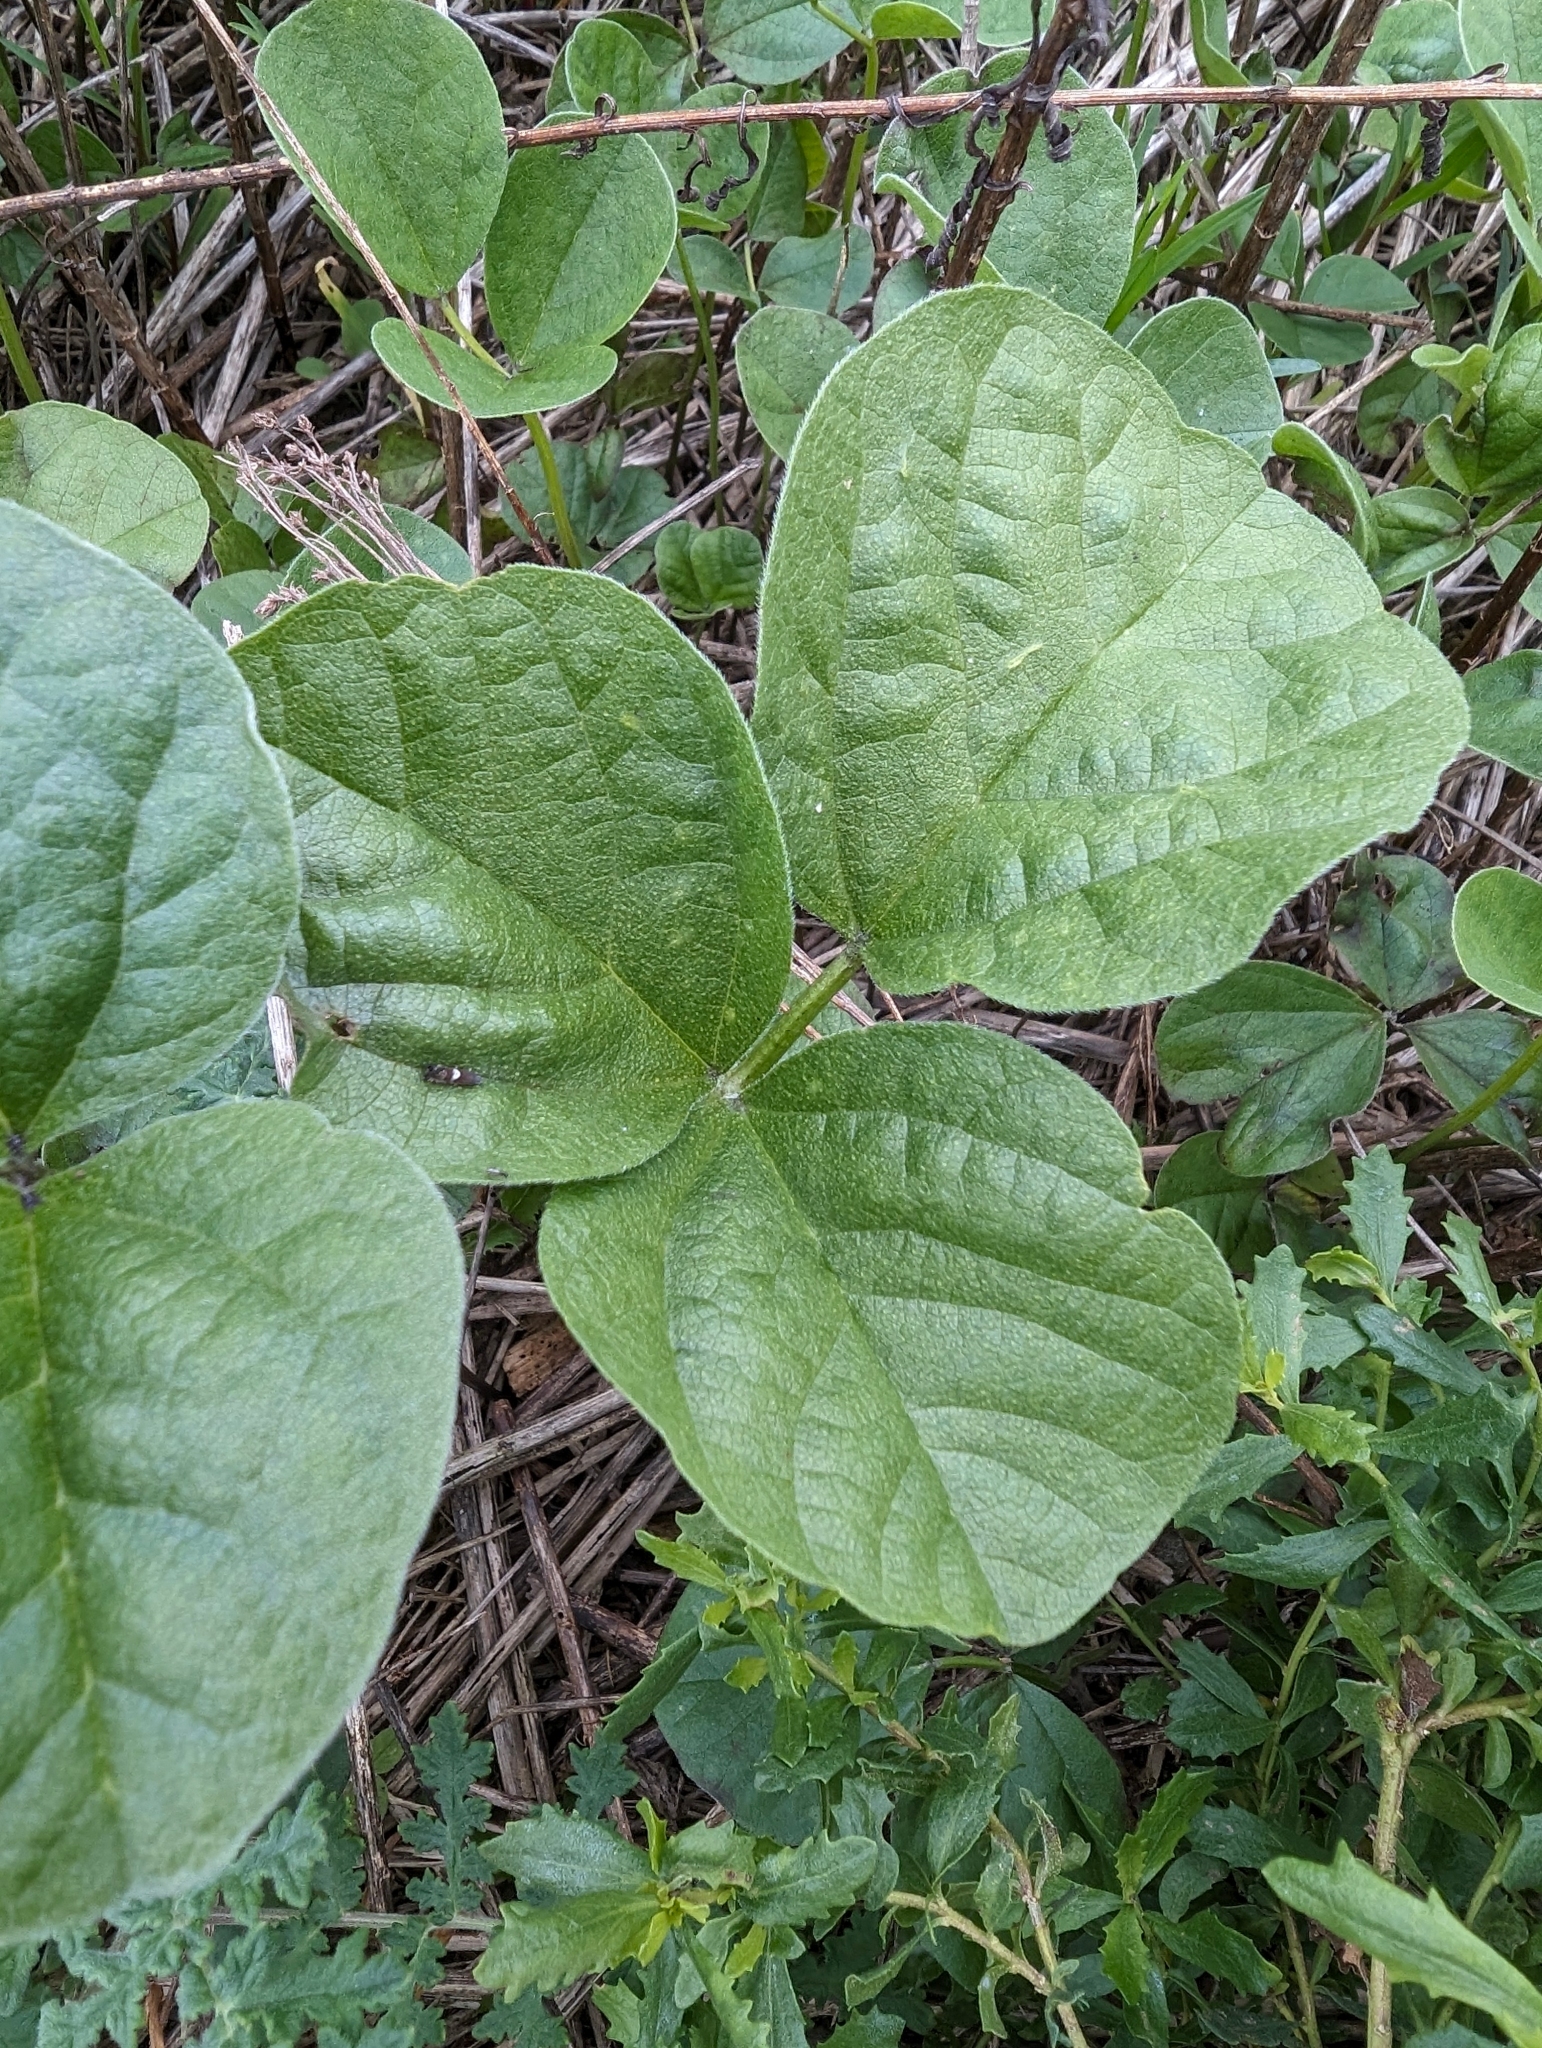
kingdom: Plantae
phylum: Tracheophyta
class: Magnoliopsida
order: Fabales
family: Fabaceae
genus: Hoita
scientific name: Hoita orbicularis
